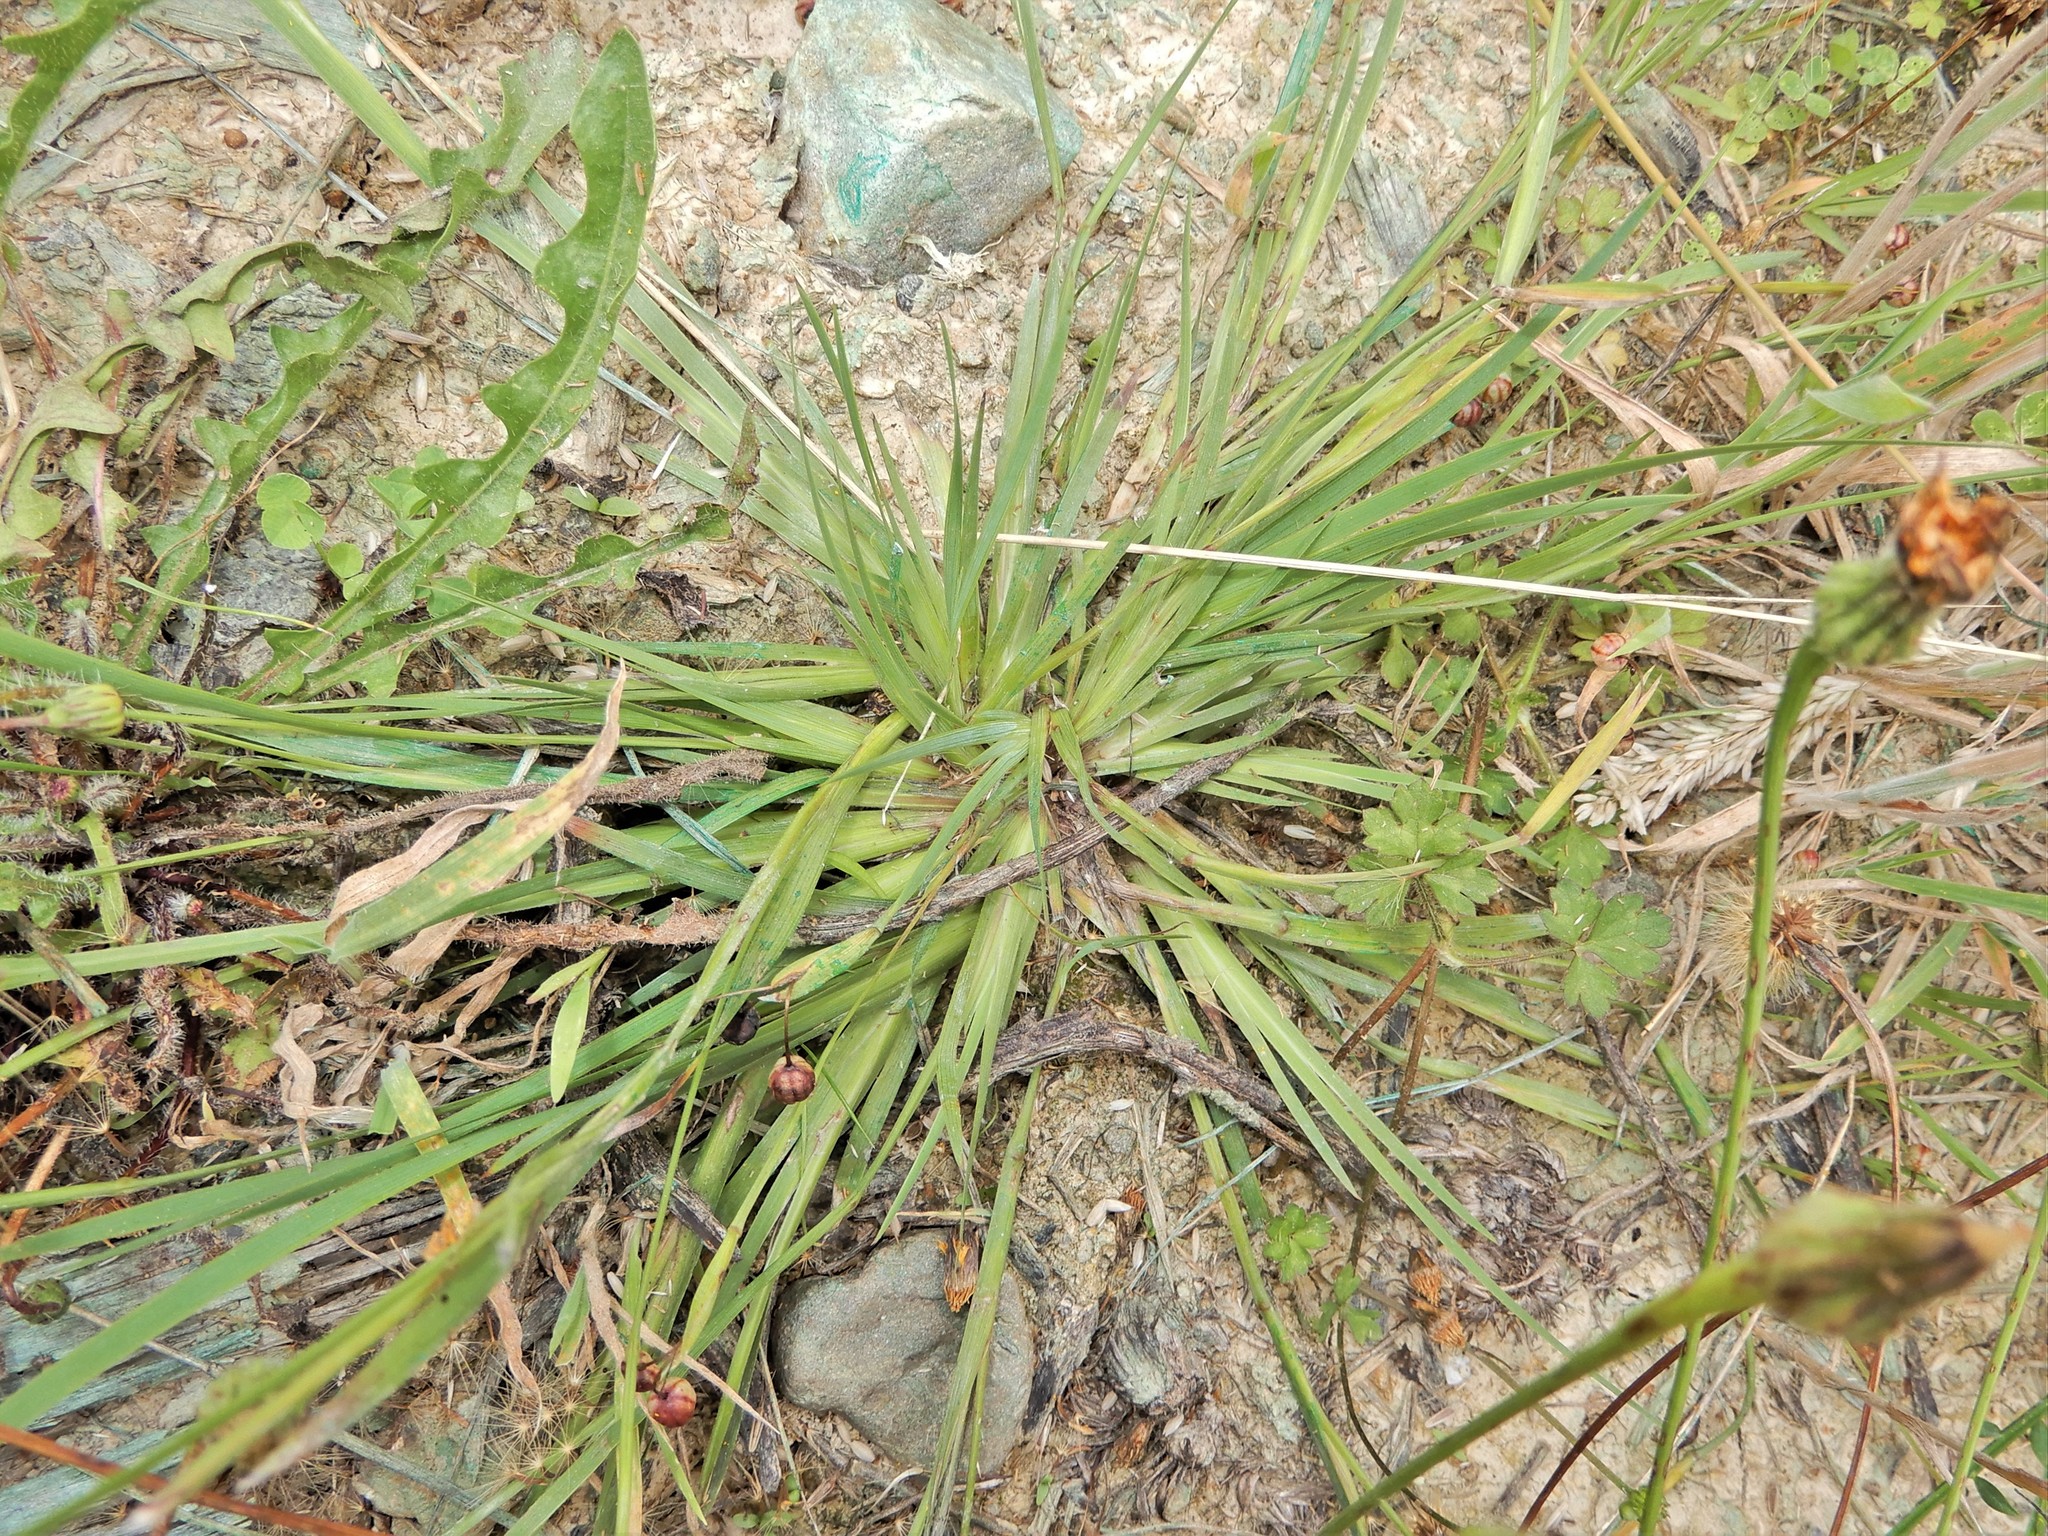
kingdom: Plantae
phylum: Tracheophyta
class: Liliopsida
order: Asparagales
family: Iridaceae
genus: Sisyrinchium
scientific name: Sisyrinchium micranthum
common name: Bermuda pigroot
